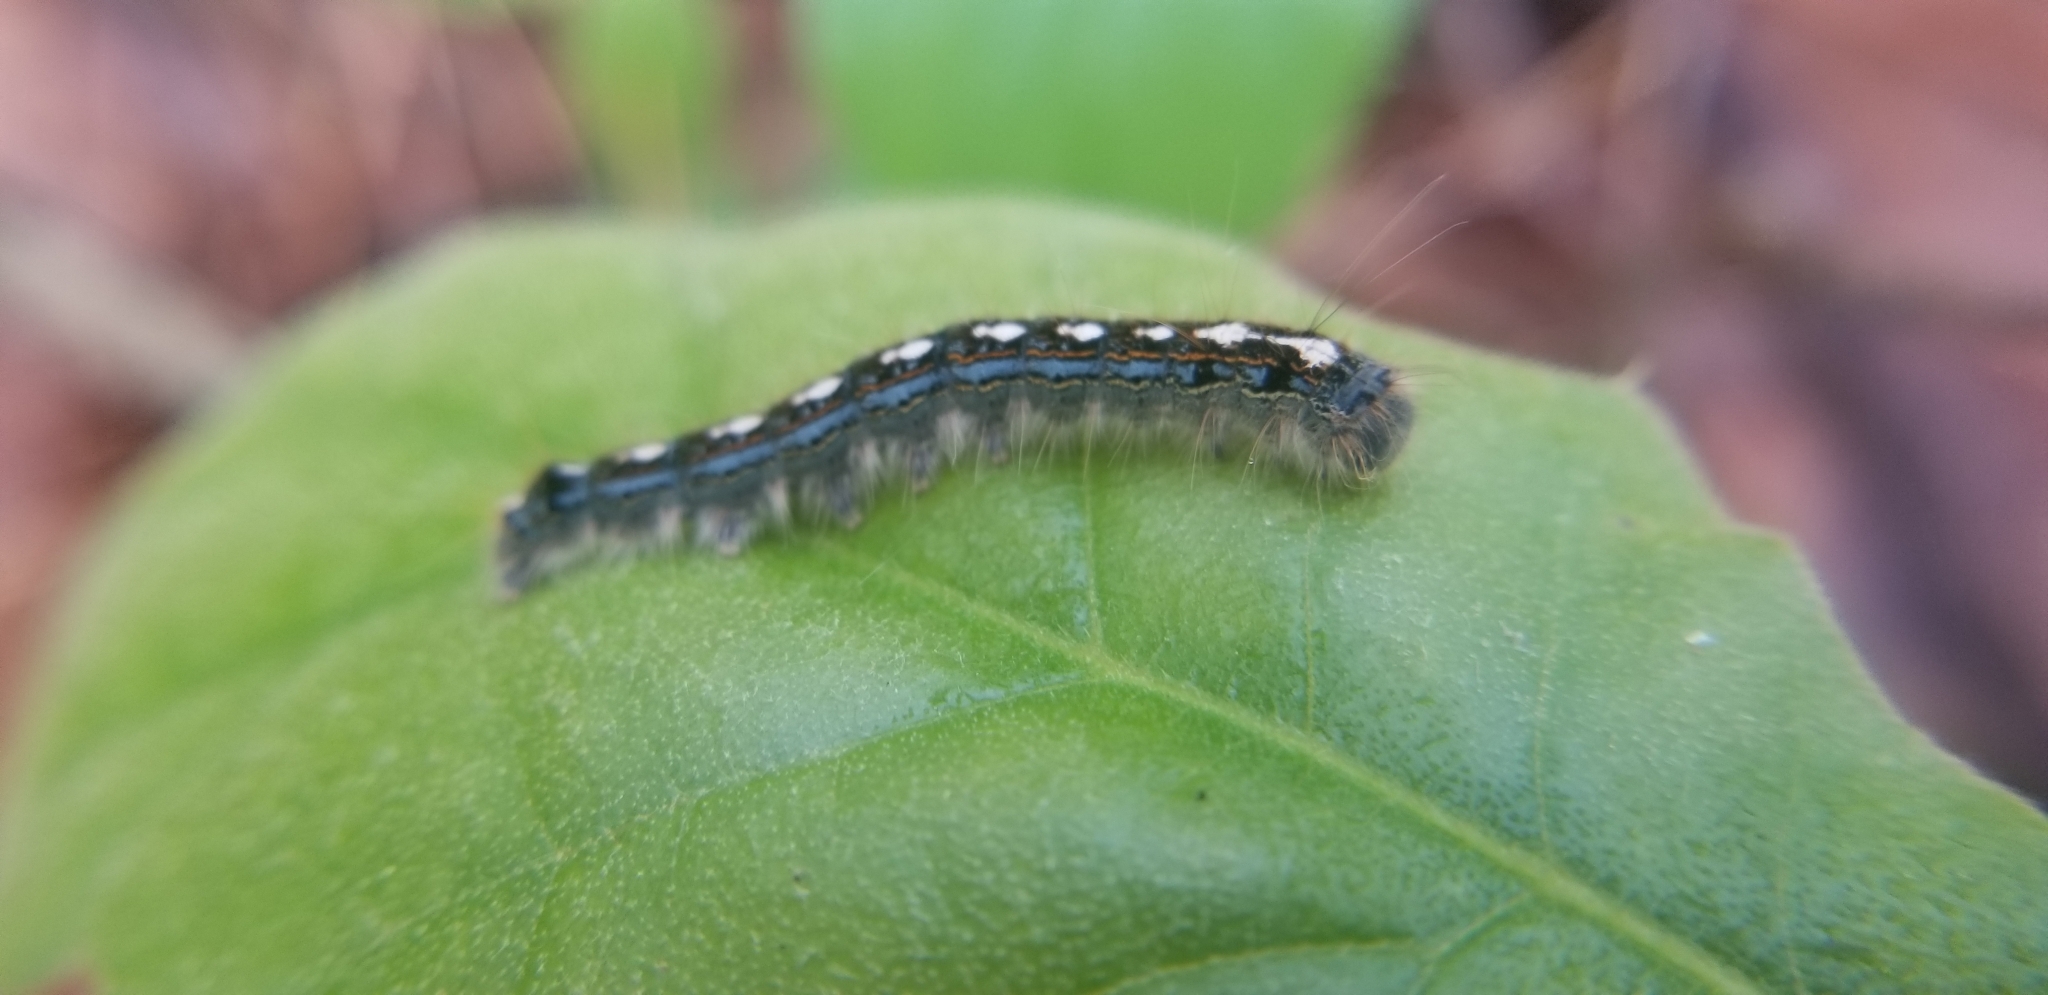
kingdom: Animalia
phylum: Arthropoda
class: Insecta
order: Lepidoptera
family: Lasiocampidae
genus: Malacosoma
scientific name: Malacosoma disstria
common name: Forest tent caterpillar
